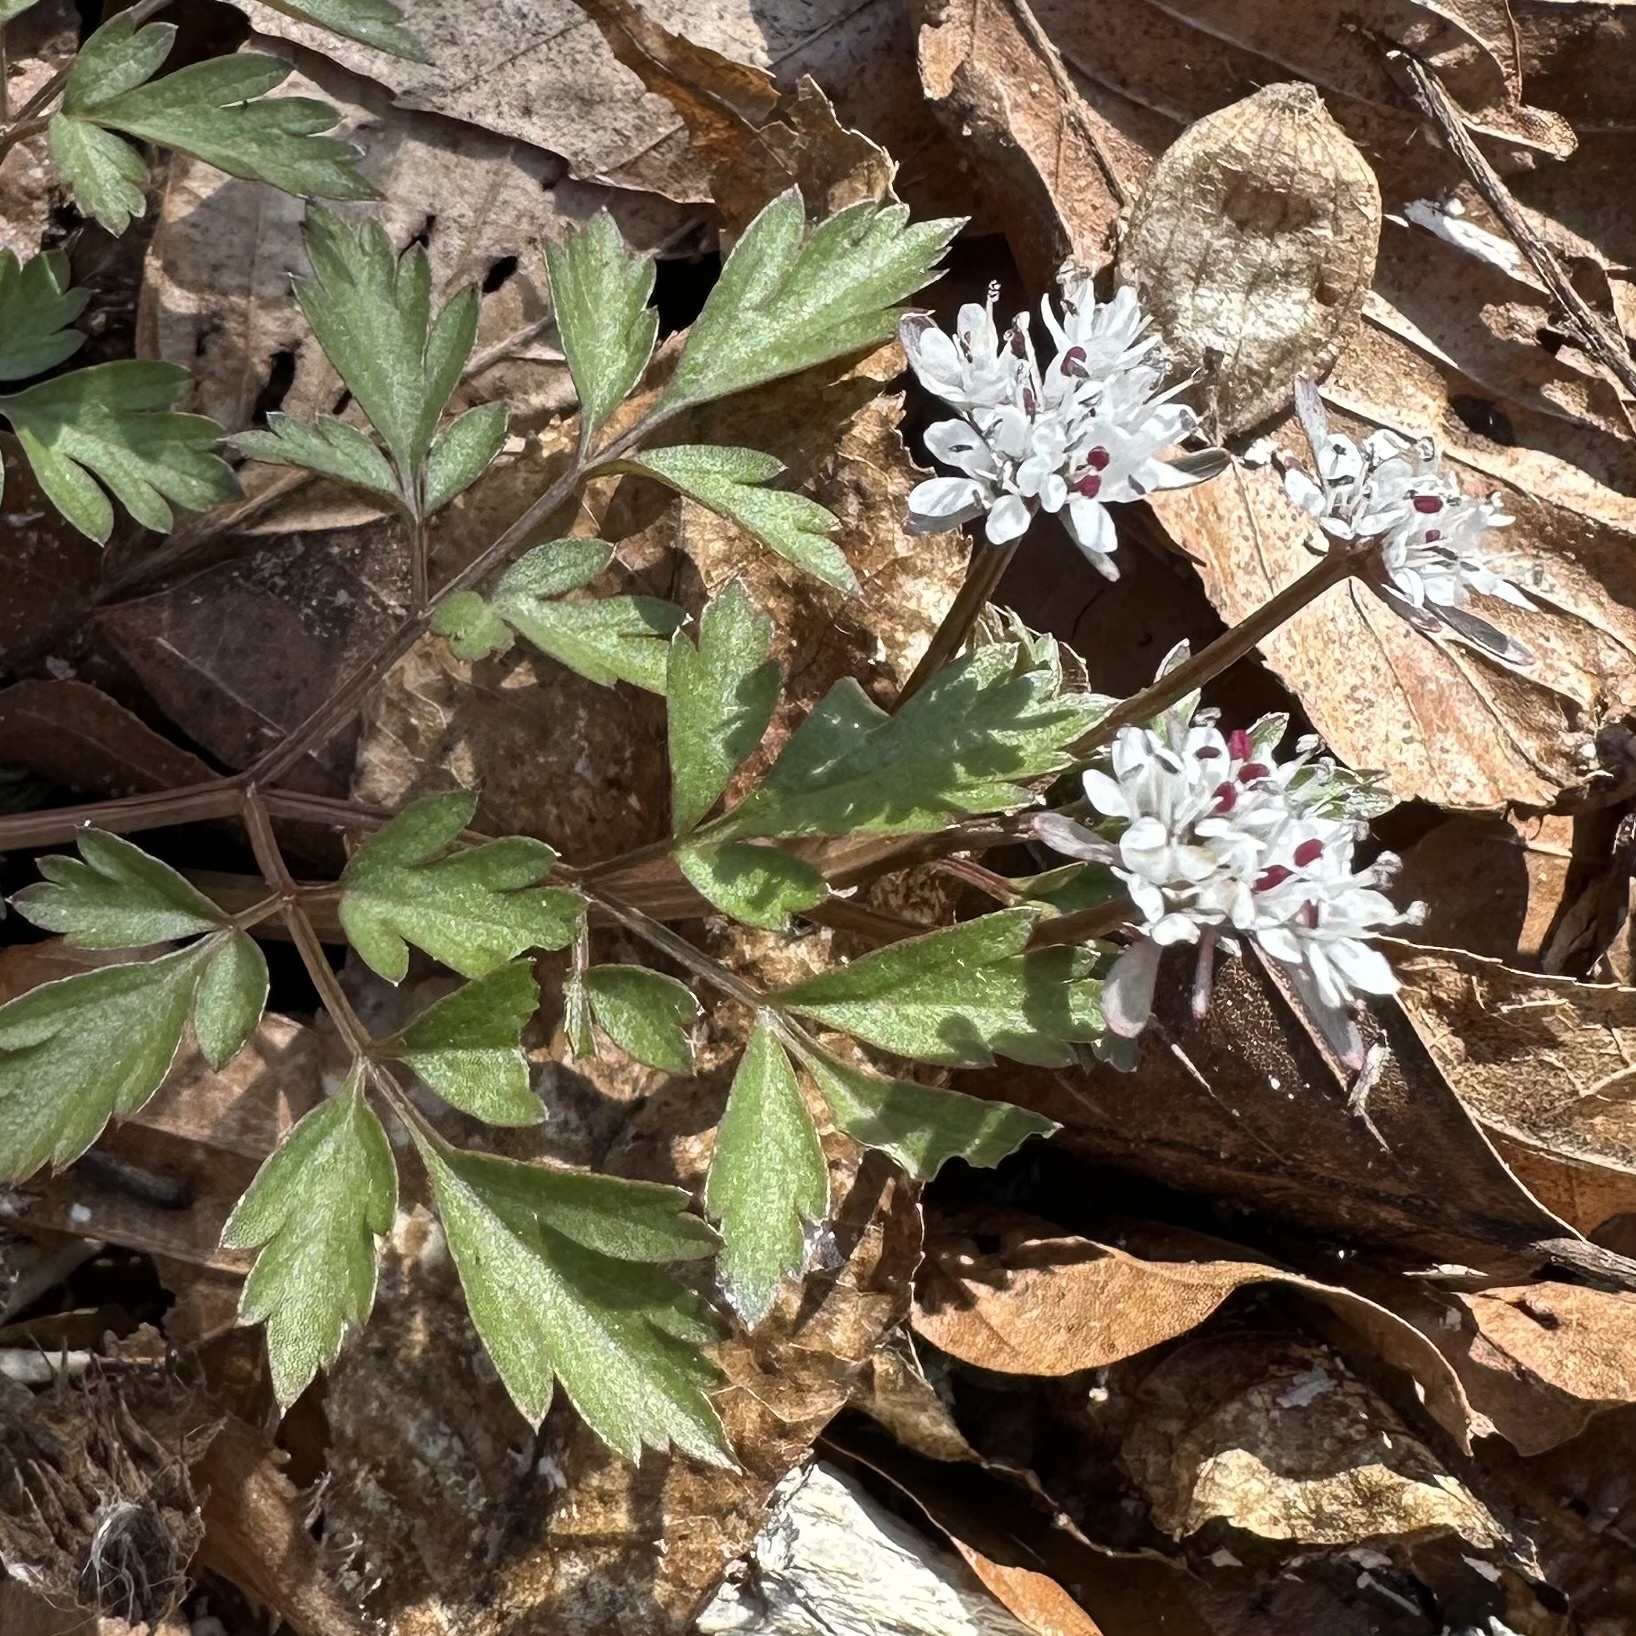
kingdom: Plantae
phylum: Tracheophyta
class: Magnoliopsida
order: Apiales
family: Apiaceae
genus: Erigenia
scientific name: Erigenia bulbosa
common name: Pepper-and-salt
